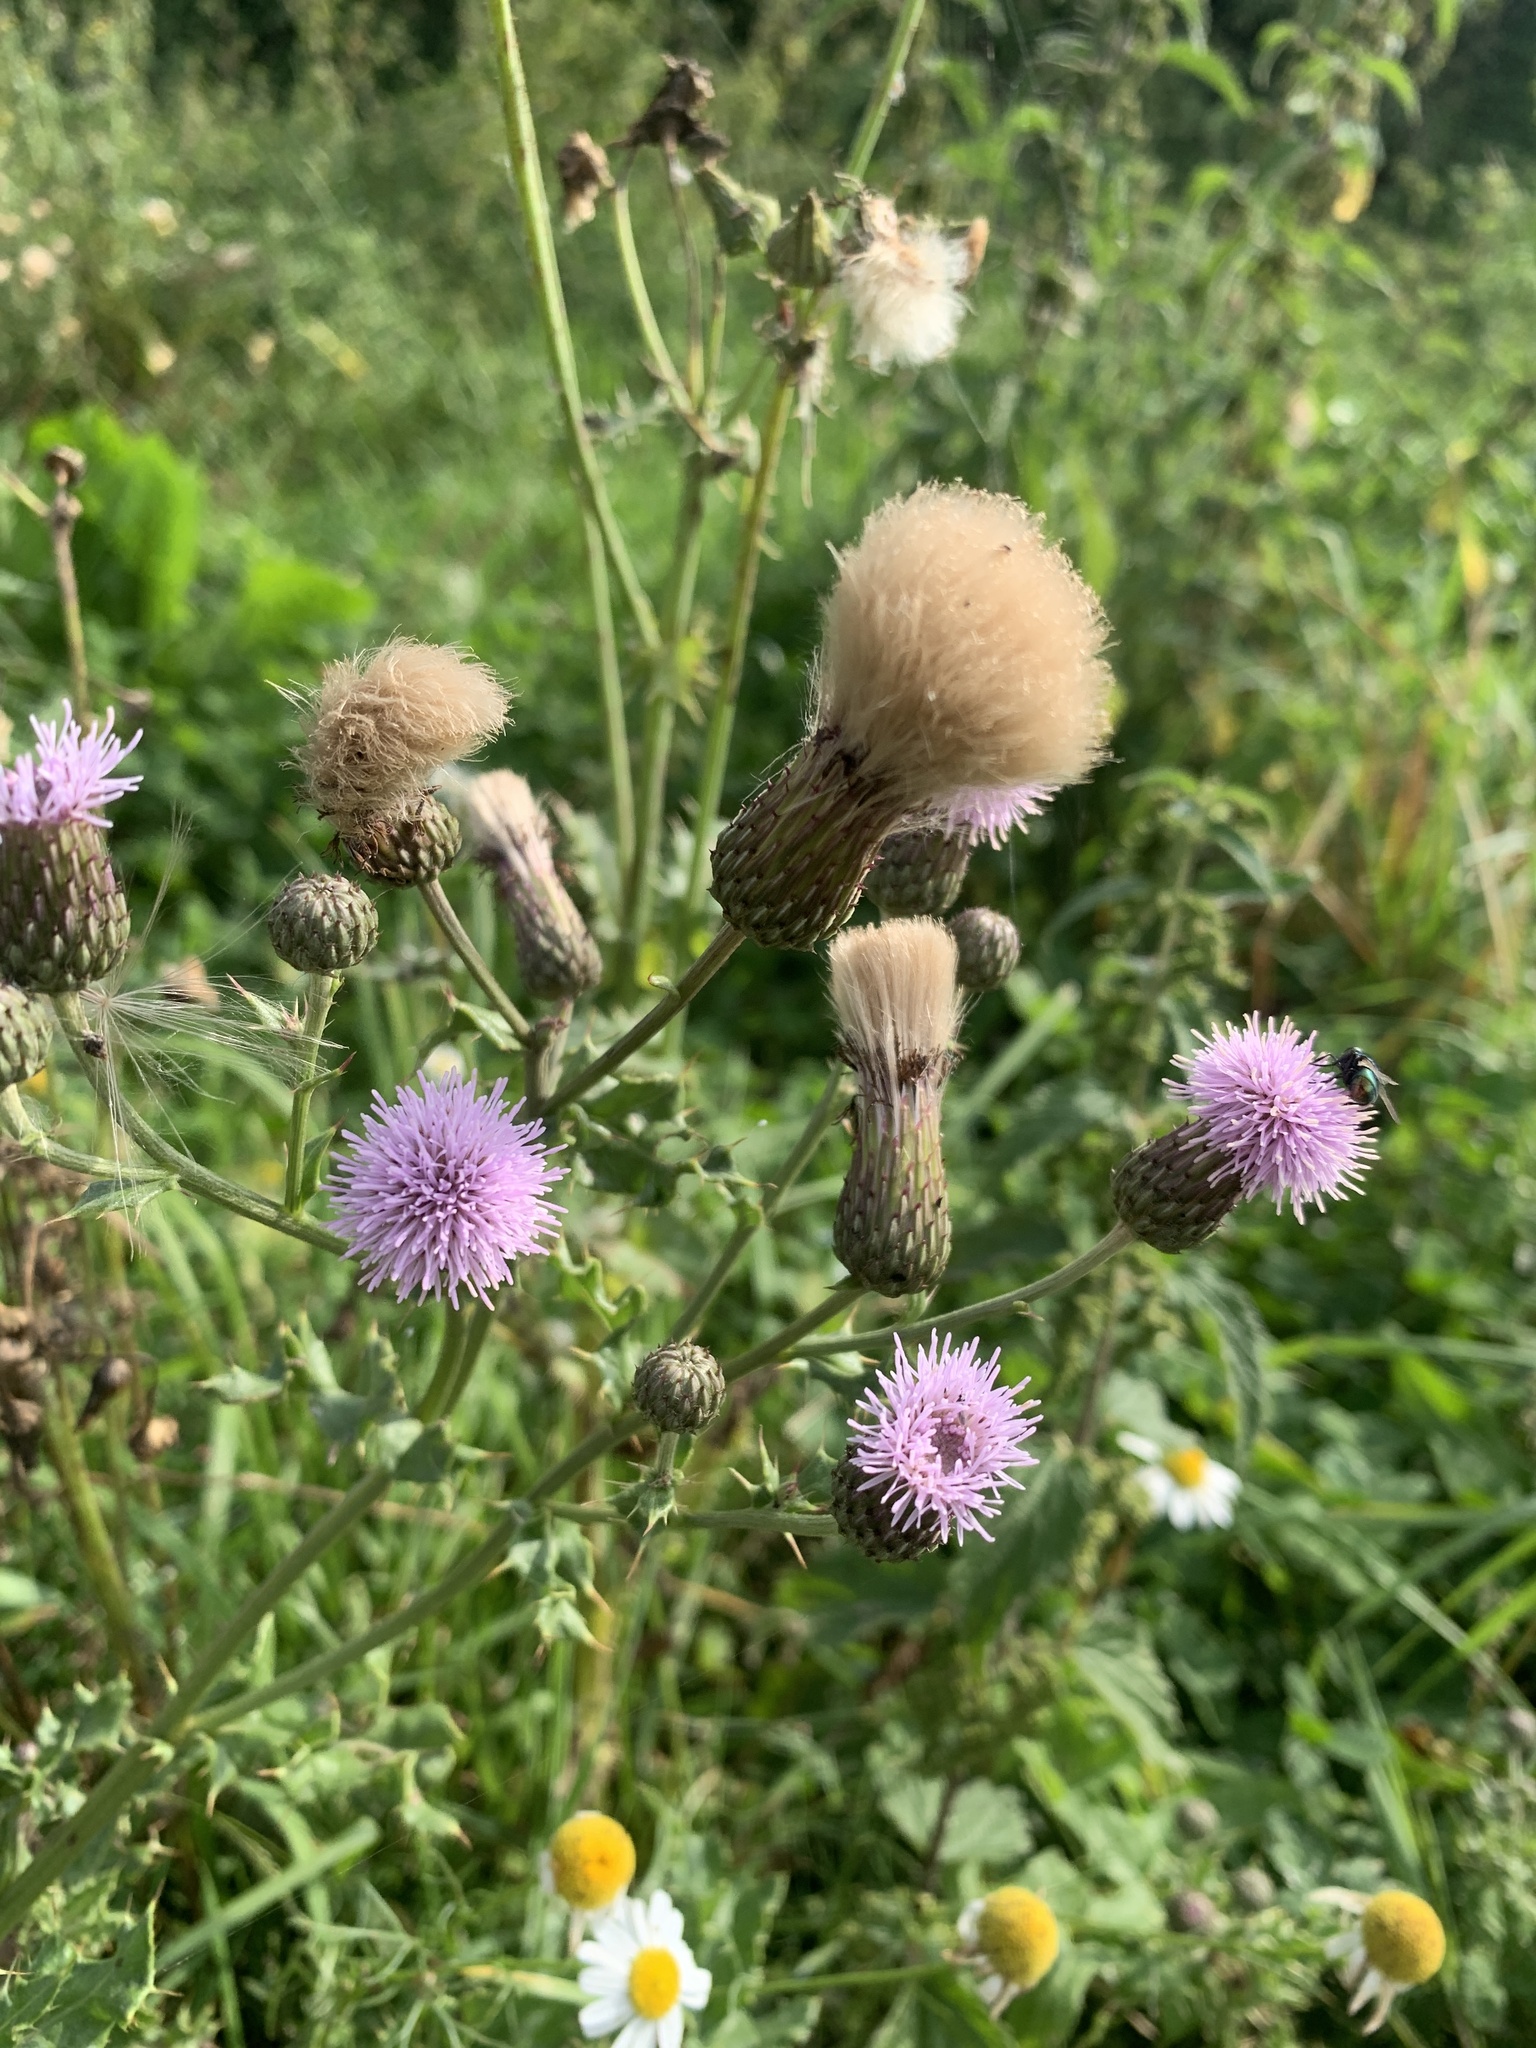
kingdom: Plantae
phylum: Tracheophyta
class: Magnoliopsida
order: Asterales
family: Asteraceae
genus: Cirsium
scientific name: Cirsium arvense
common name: Creeping thistle
